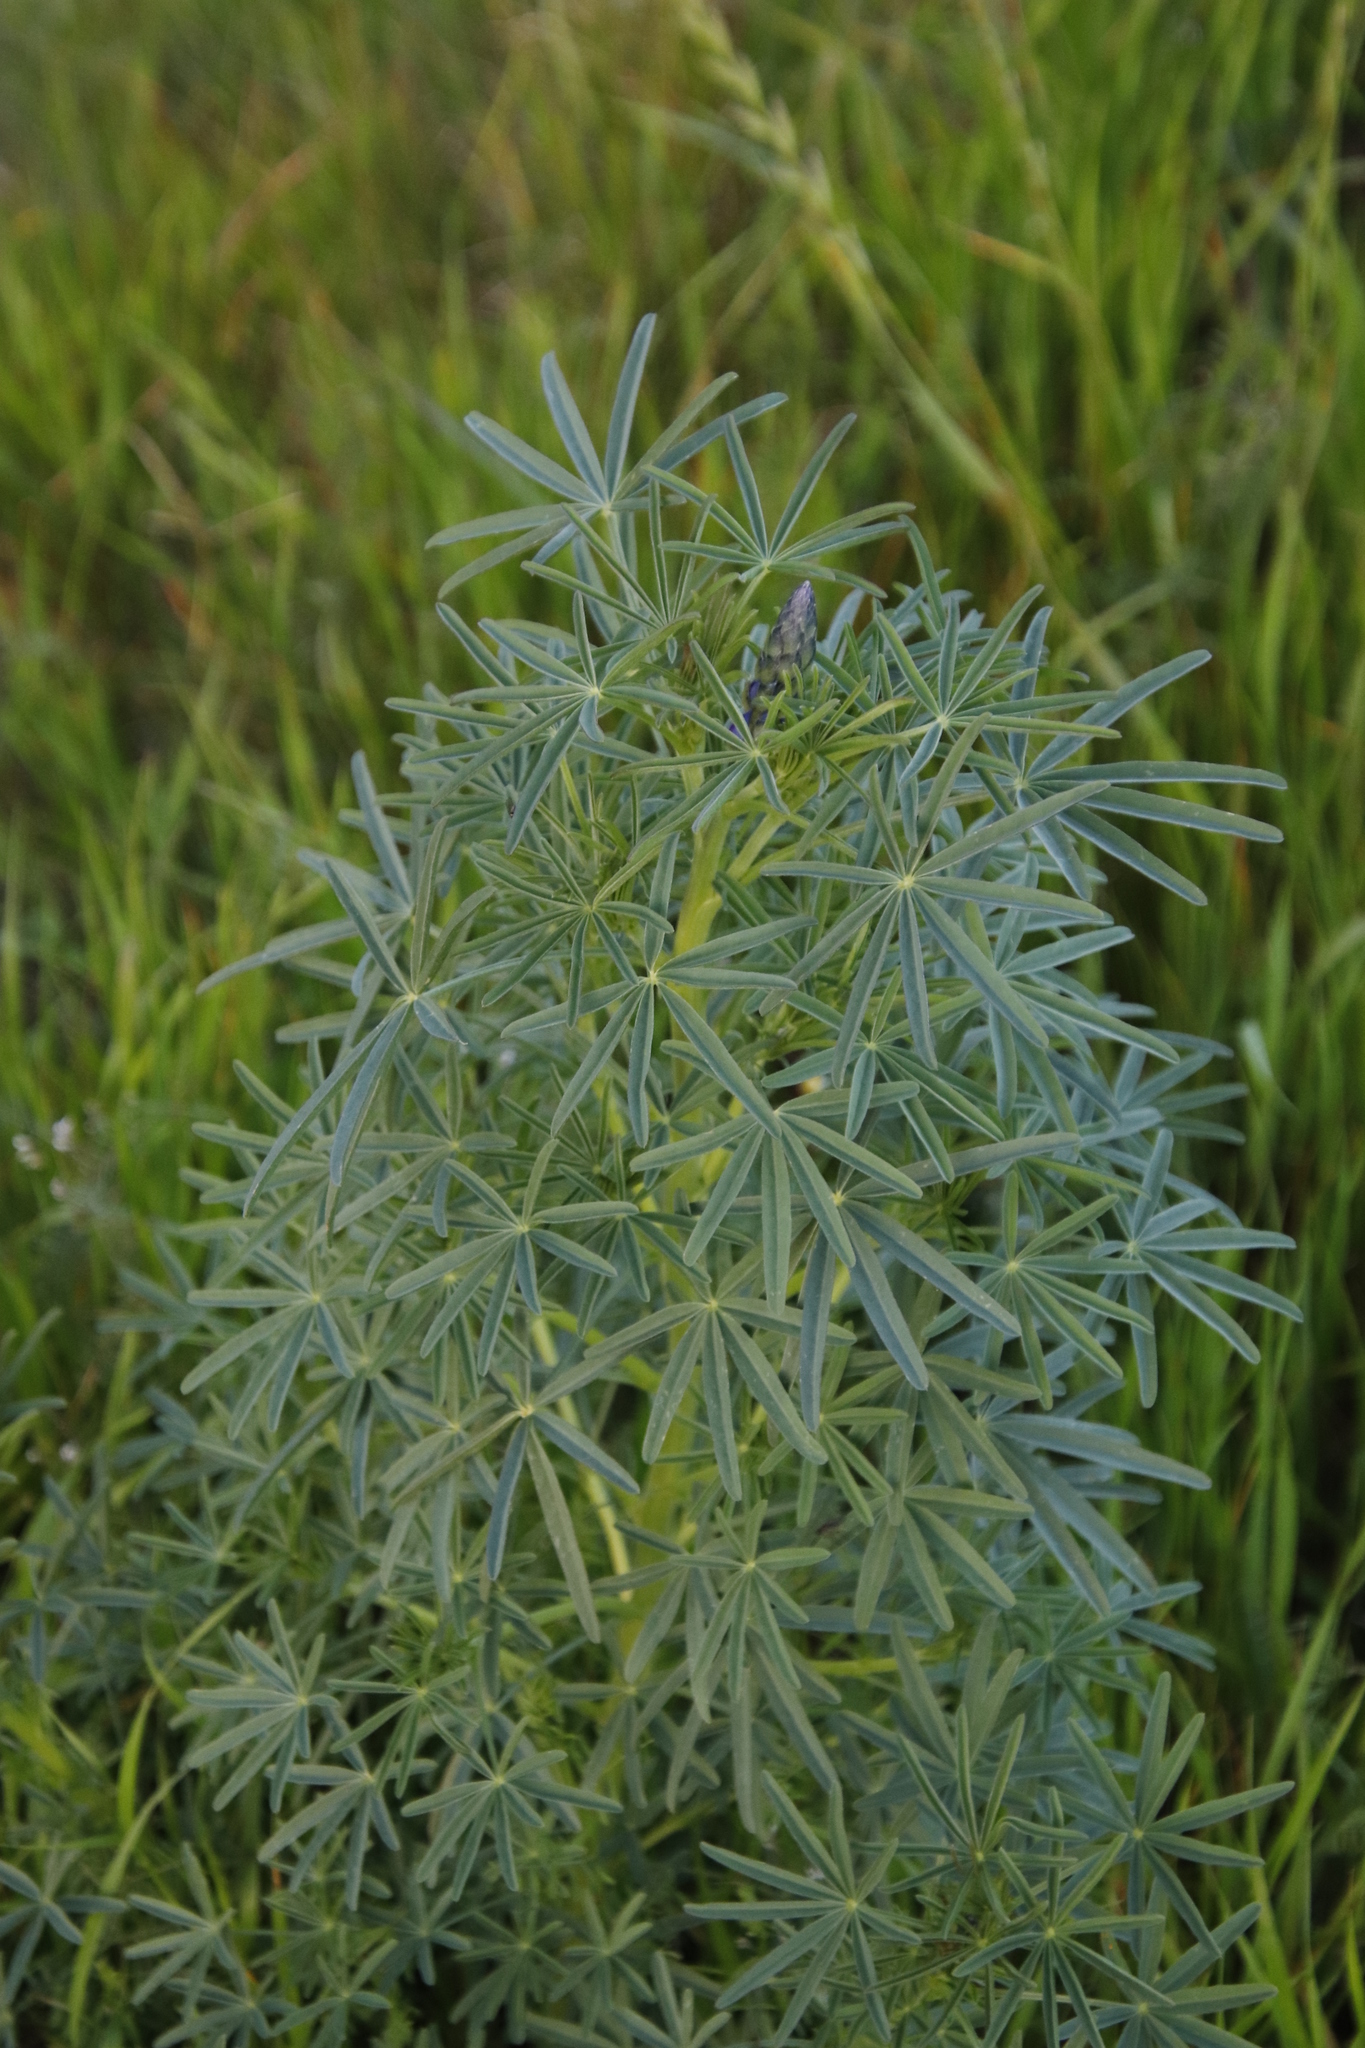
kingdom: Plantae
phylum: Tracheophyta
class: Magnoliopsida
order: Fabales
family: Fabaceae
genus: Lupinus
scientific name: Lupinus angustifolius
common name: Narrow-leaved lupin
